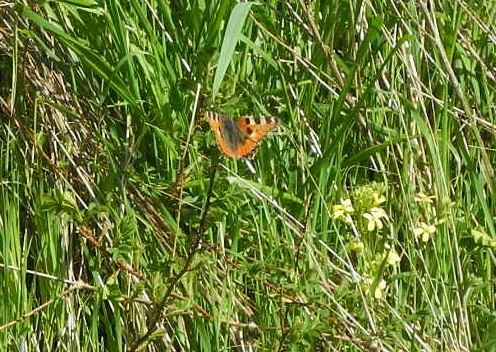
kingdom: Animalia
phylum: Arthropoda
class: Insecta
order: Lepidoptera
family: Nymphalidae
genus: Aglais
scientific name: Aglais urticae
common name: Small tortoiseshell
